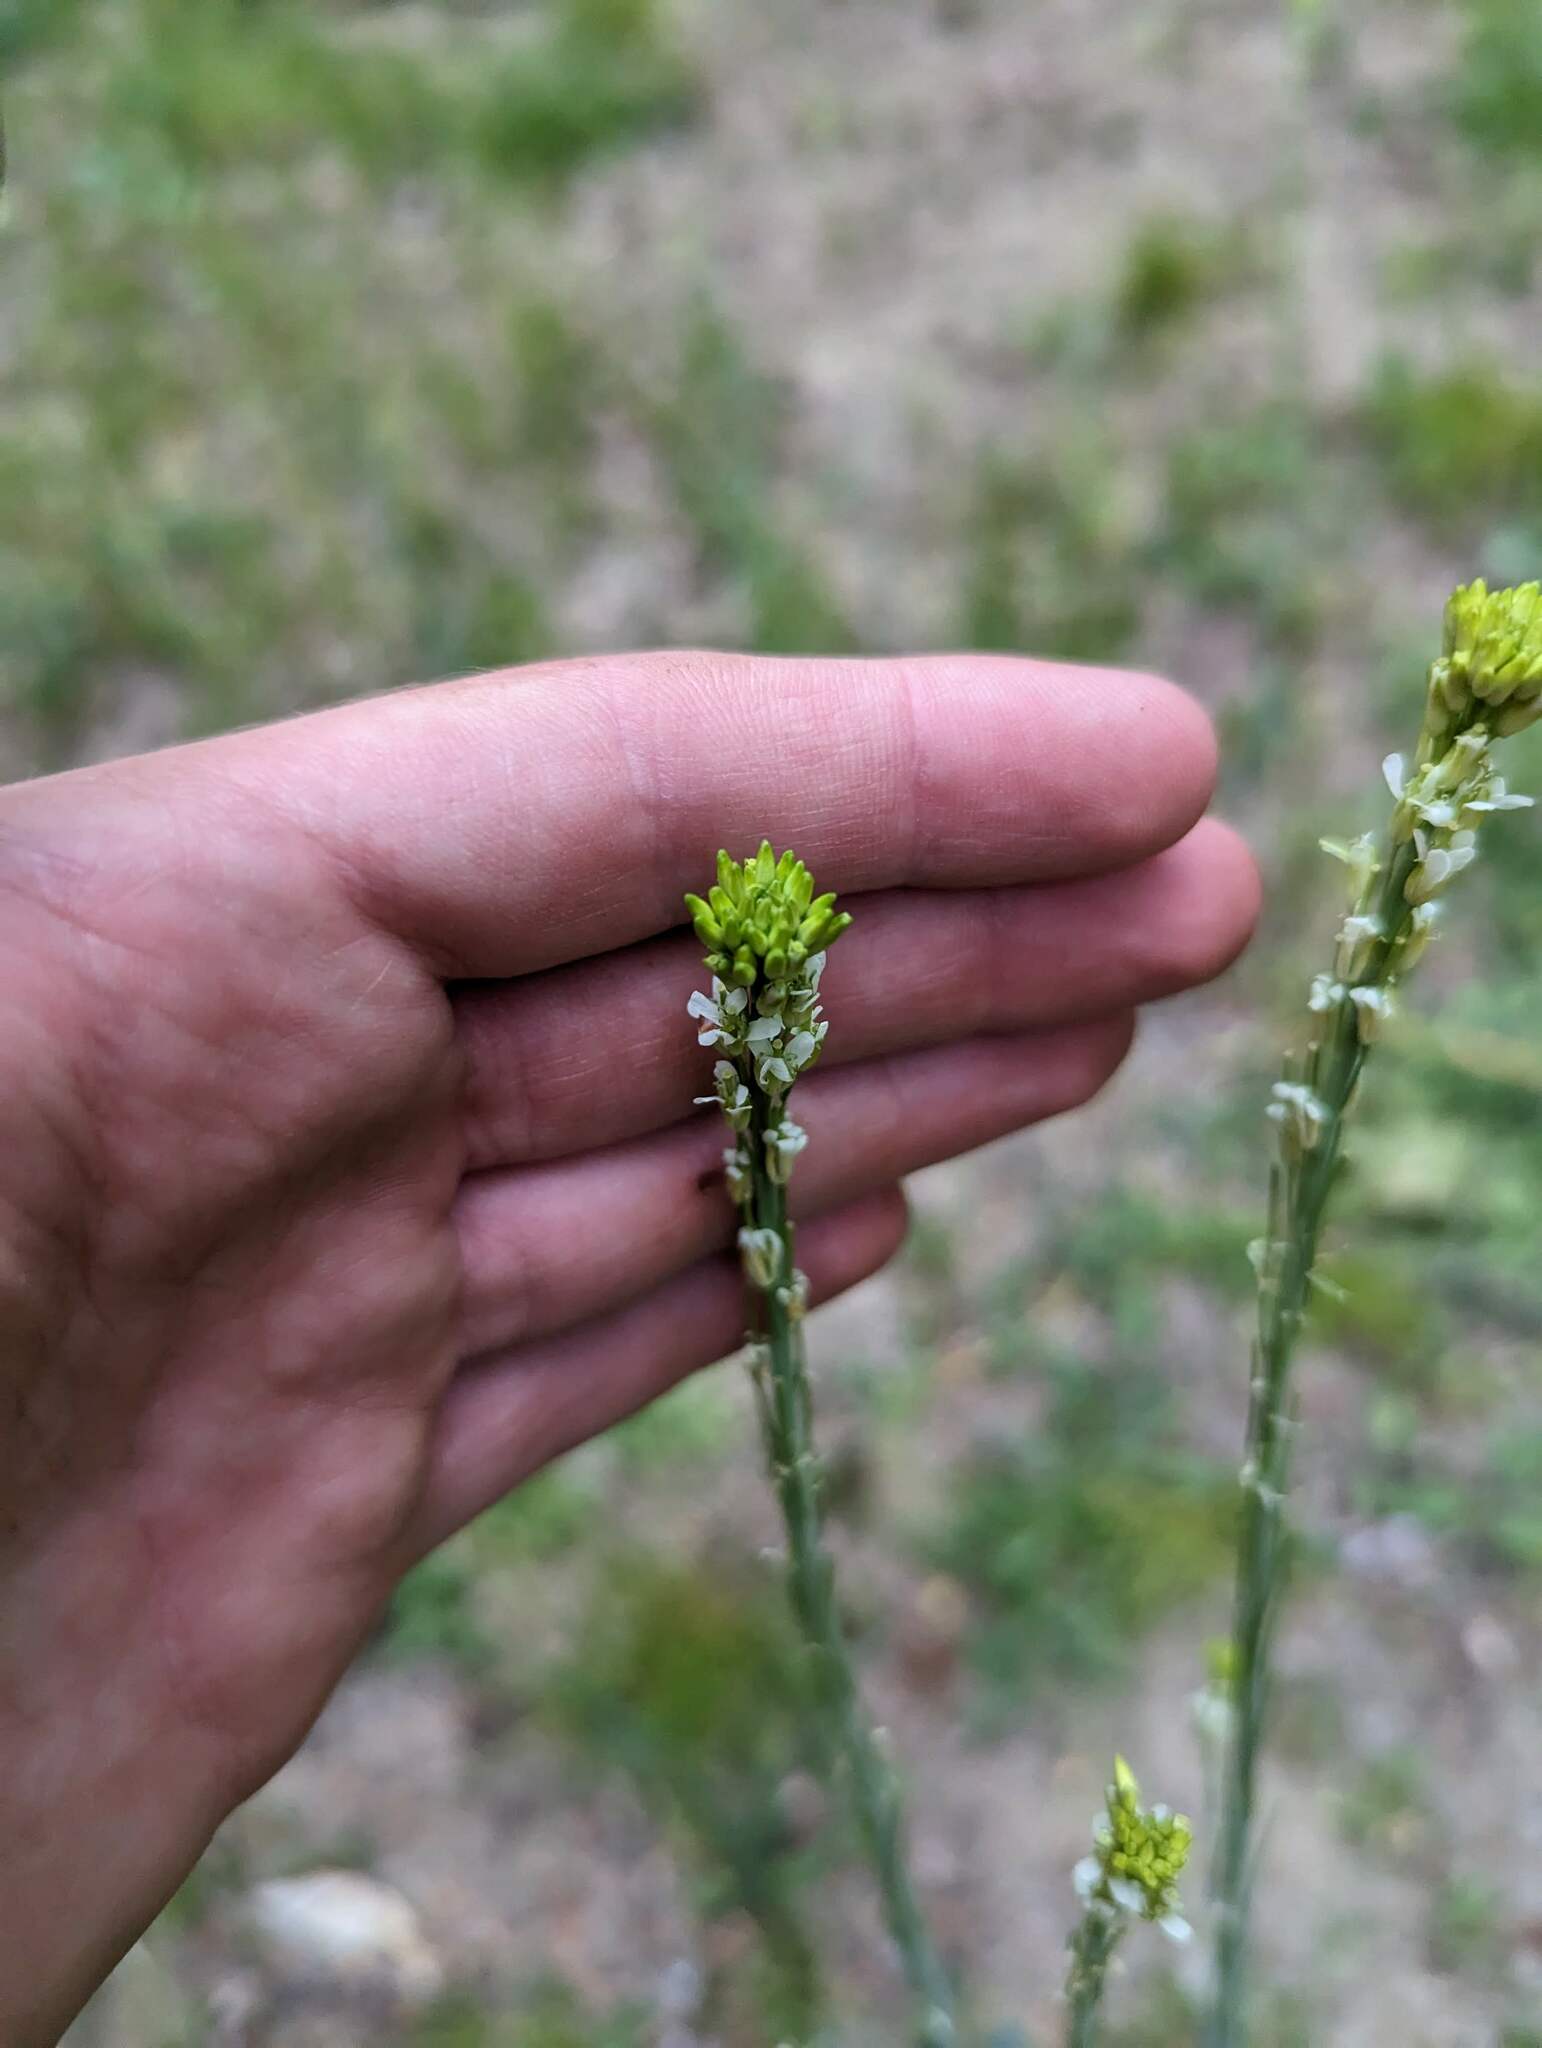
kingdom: Plantae
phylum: Tracheophyta
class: Magnoliopsida
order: Brassicales
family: Brassicaceae
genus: Turritis
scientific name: Turritis glabra
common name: Tower rockcress
